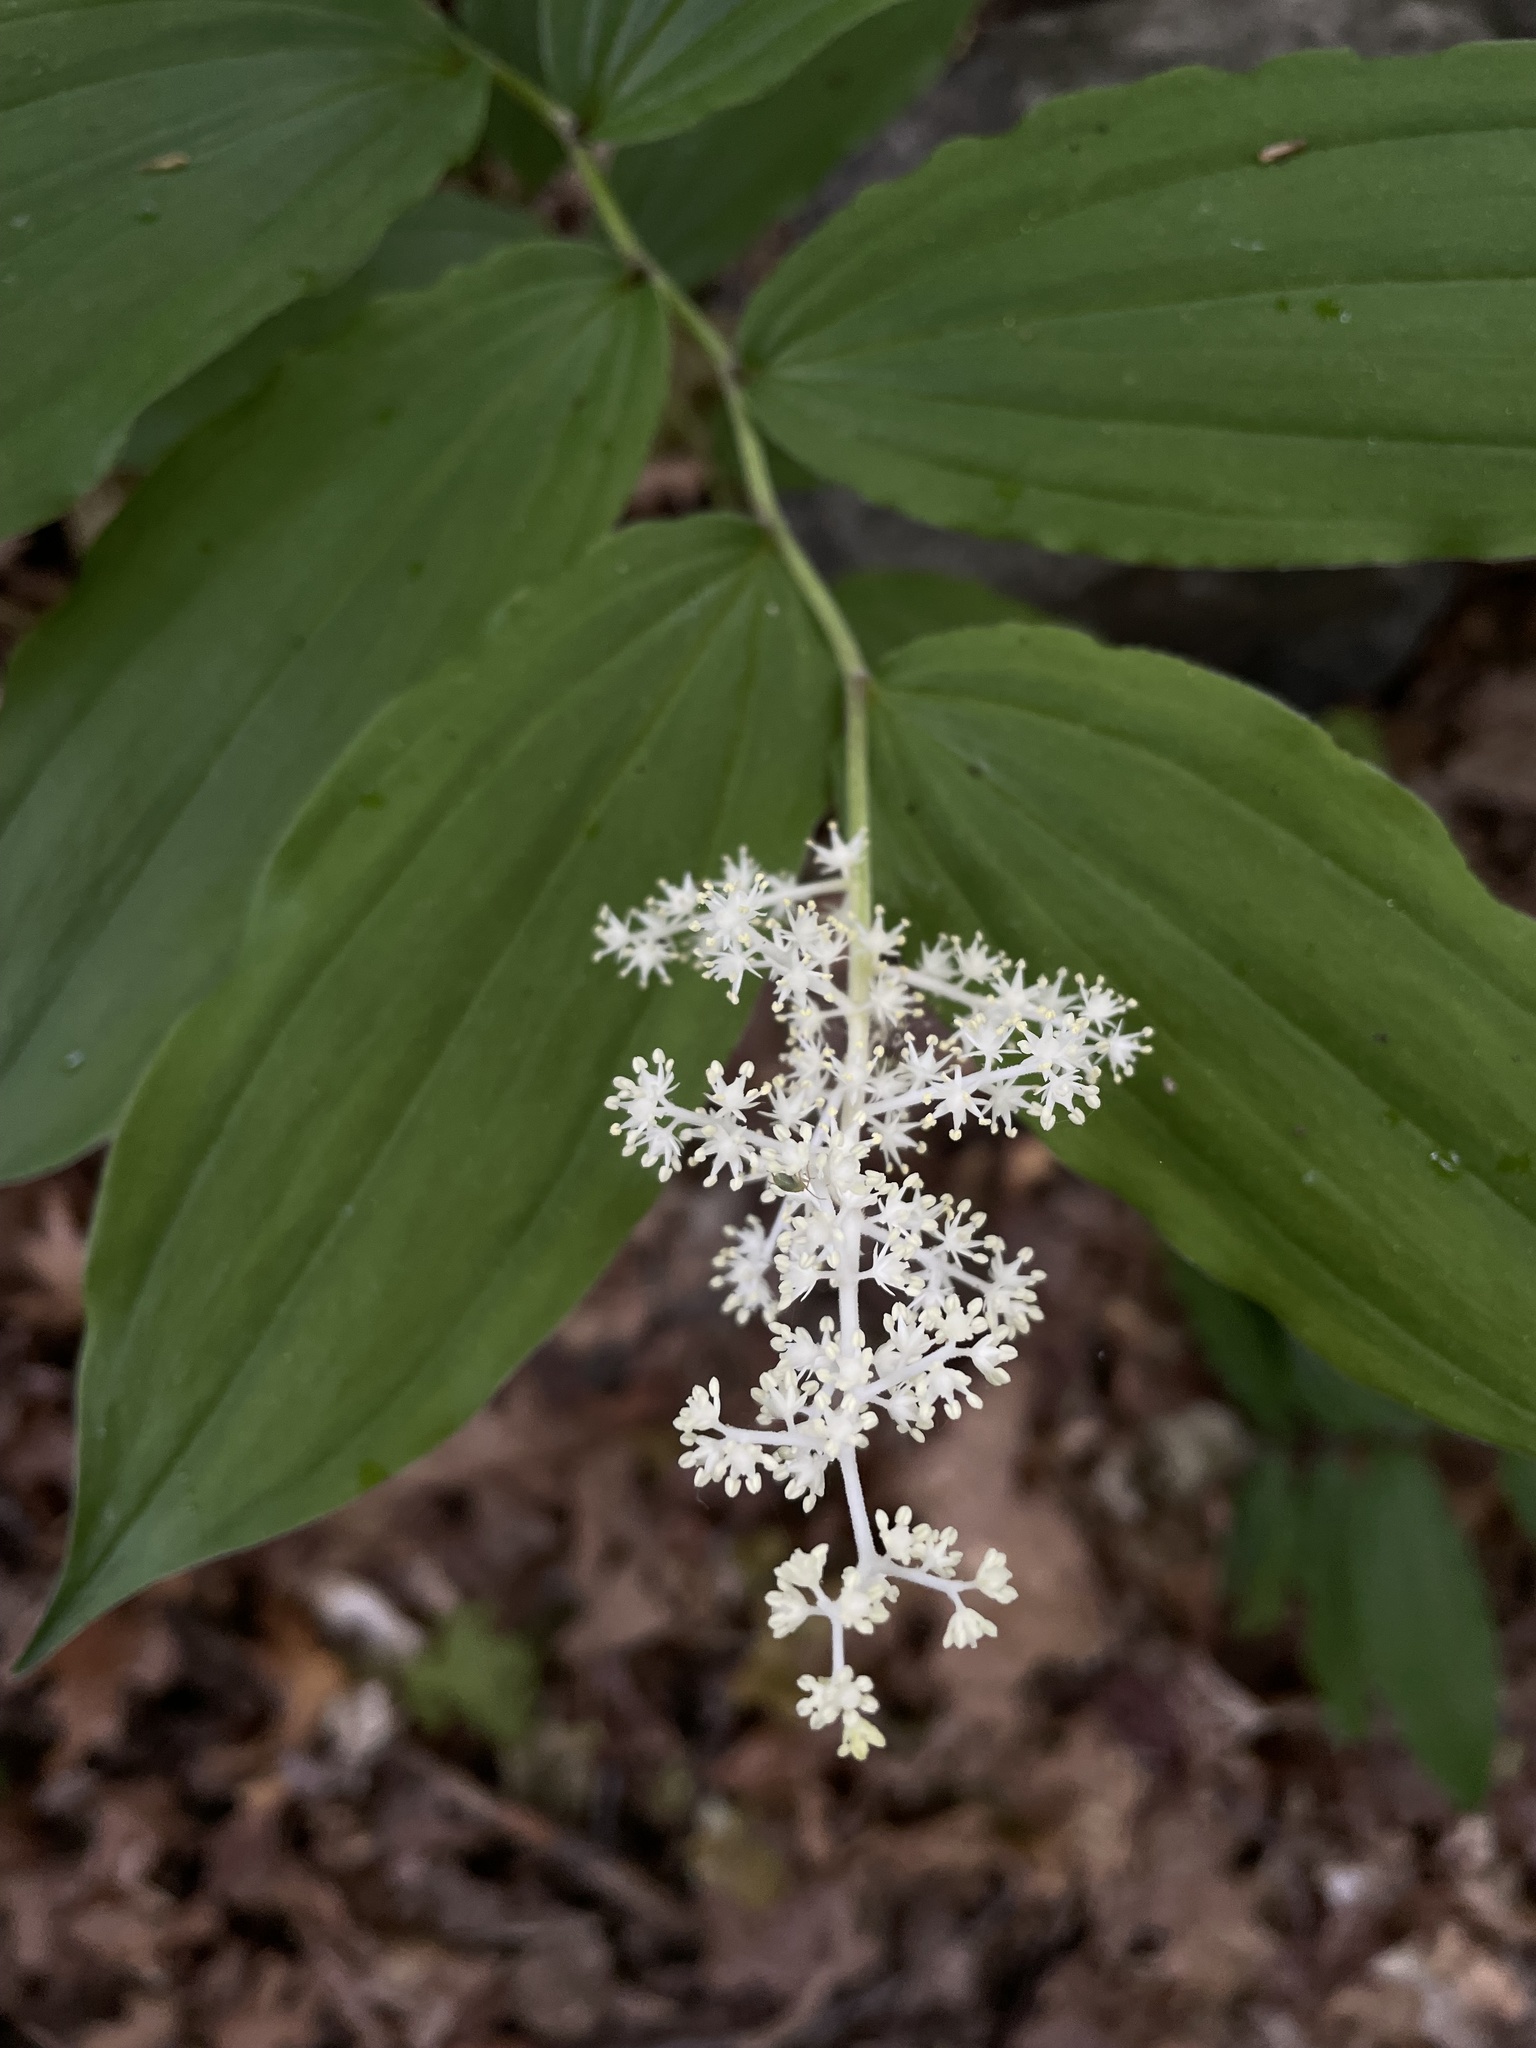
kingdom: Plantae
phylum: Tracheophyta
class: Liliopsida
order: Asparagales
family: Asparagaceae
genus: Maianthemum
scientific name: Maianthemum racemosum
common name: False spikenard
